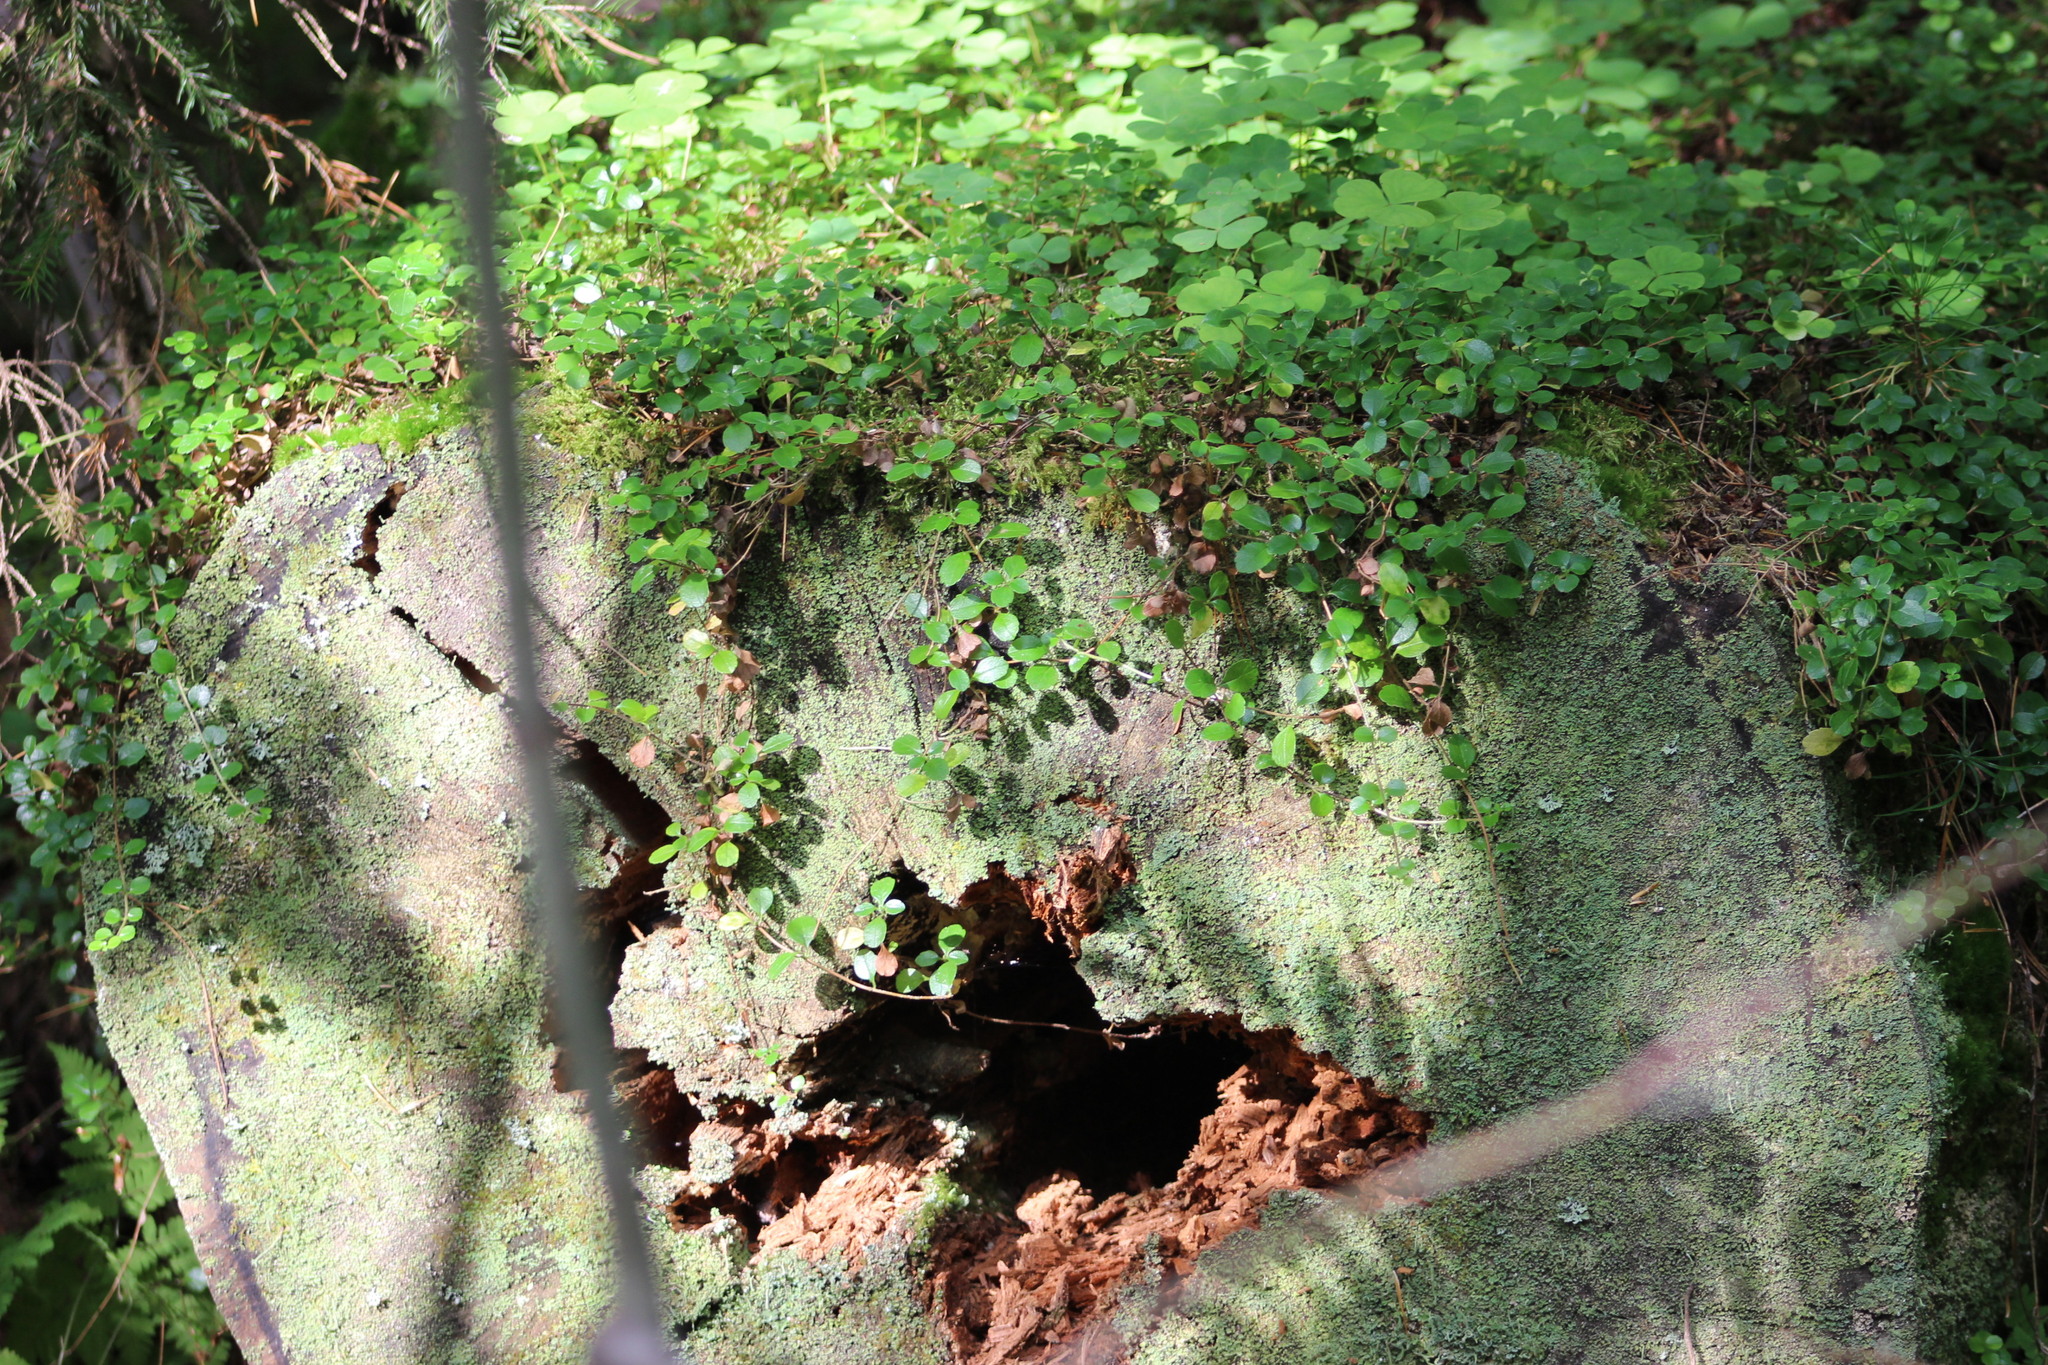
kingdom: Plantae
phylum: Tracheophyta
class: Magnoliopsida
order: Dipsacales
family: Caprifoliaceae
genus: Linnaea
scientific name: Linnaea borealis
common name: Twinflower
